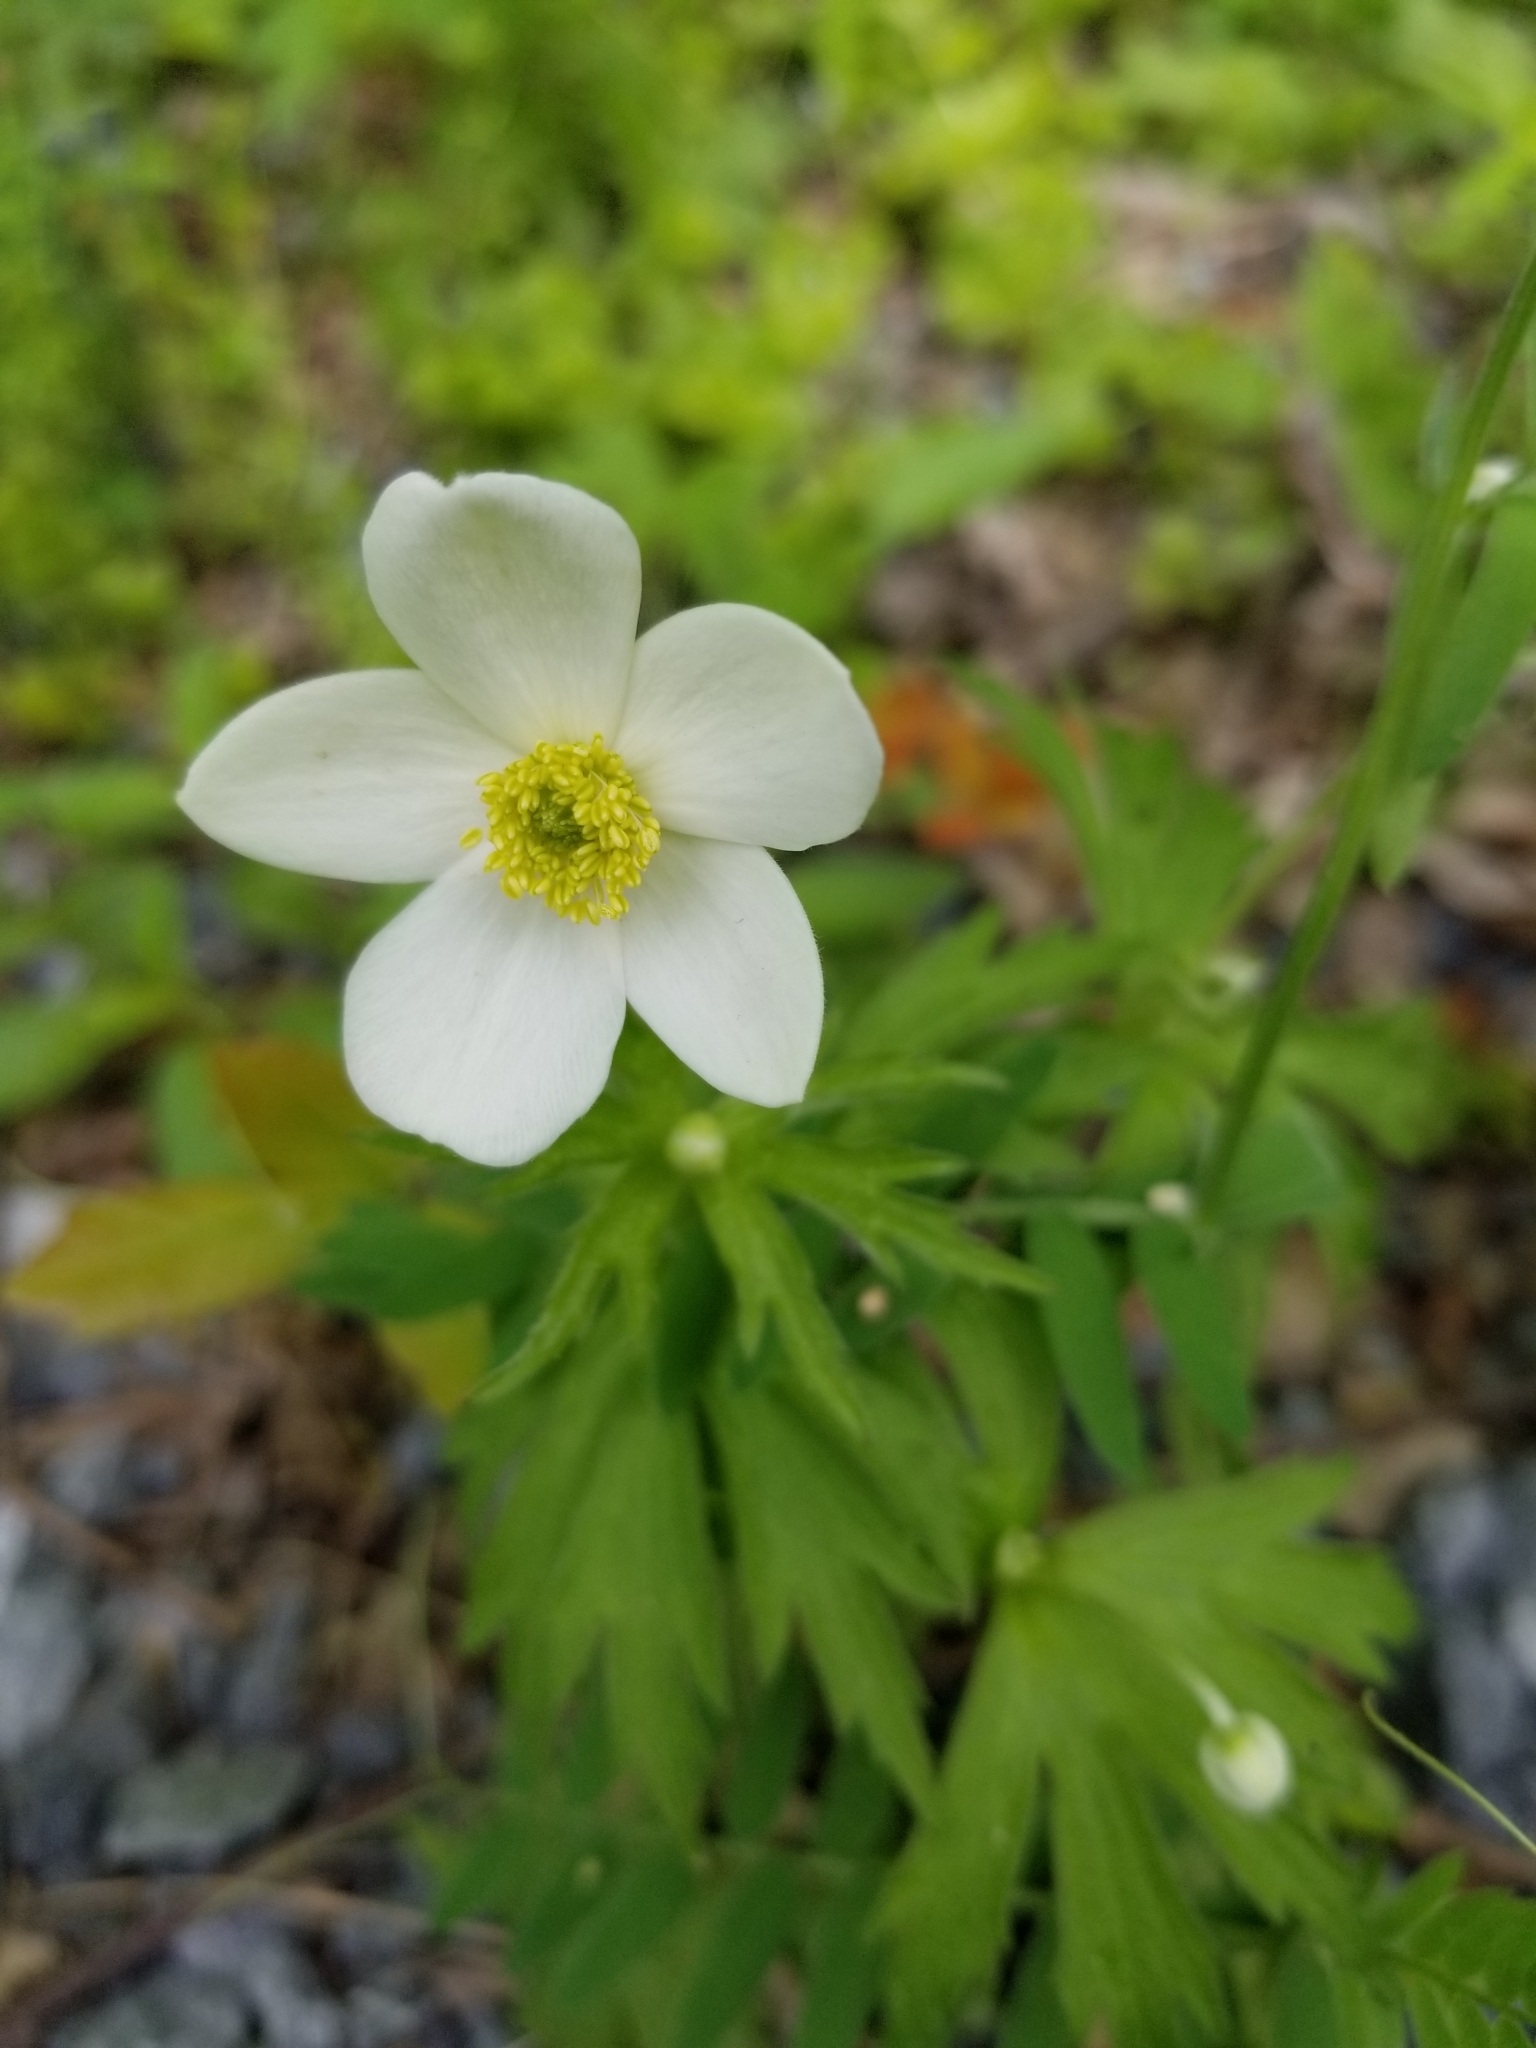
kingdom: Plantae
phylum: Tracheophyta
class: Magnoliopsida
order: Ranunculales
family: Ranunculaceae
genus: Anemonastrum
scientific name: Anemonastrum canadense
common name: Canada anemone
